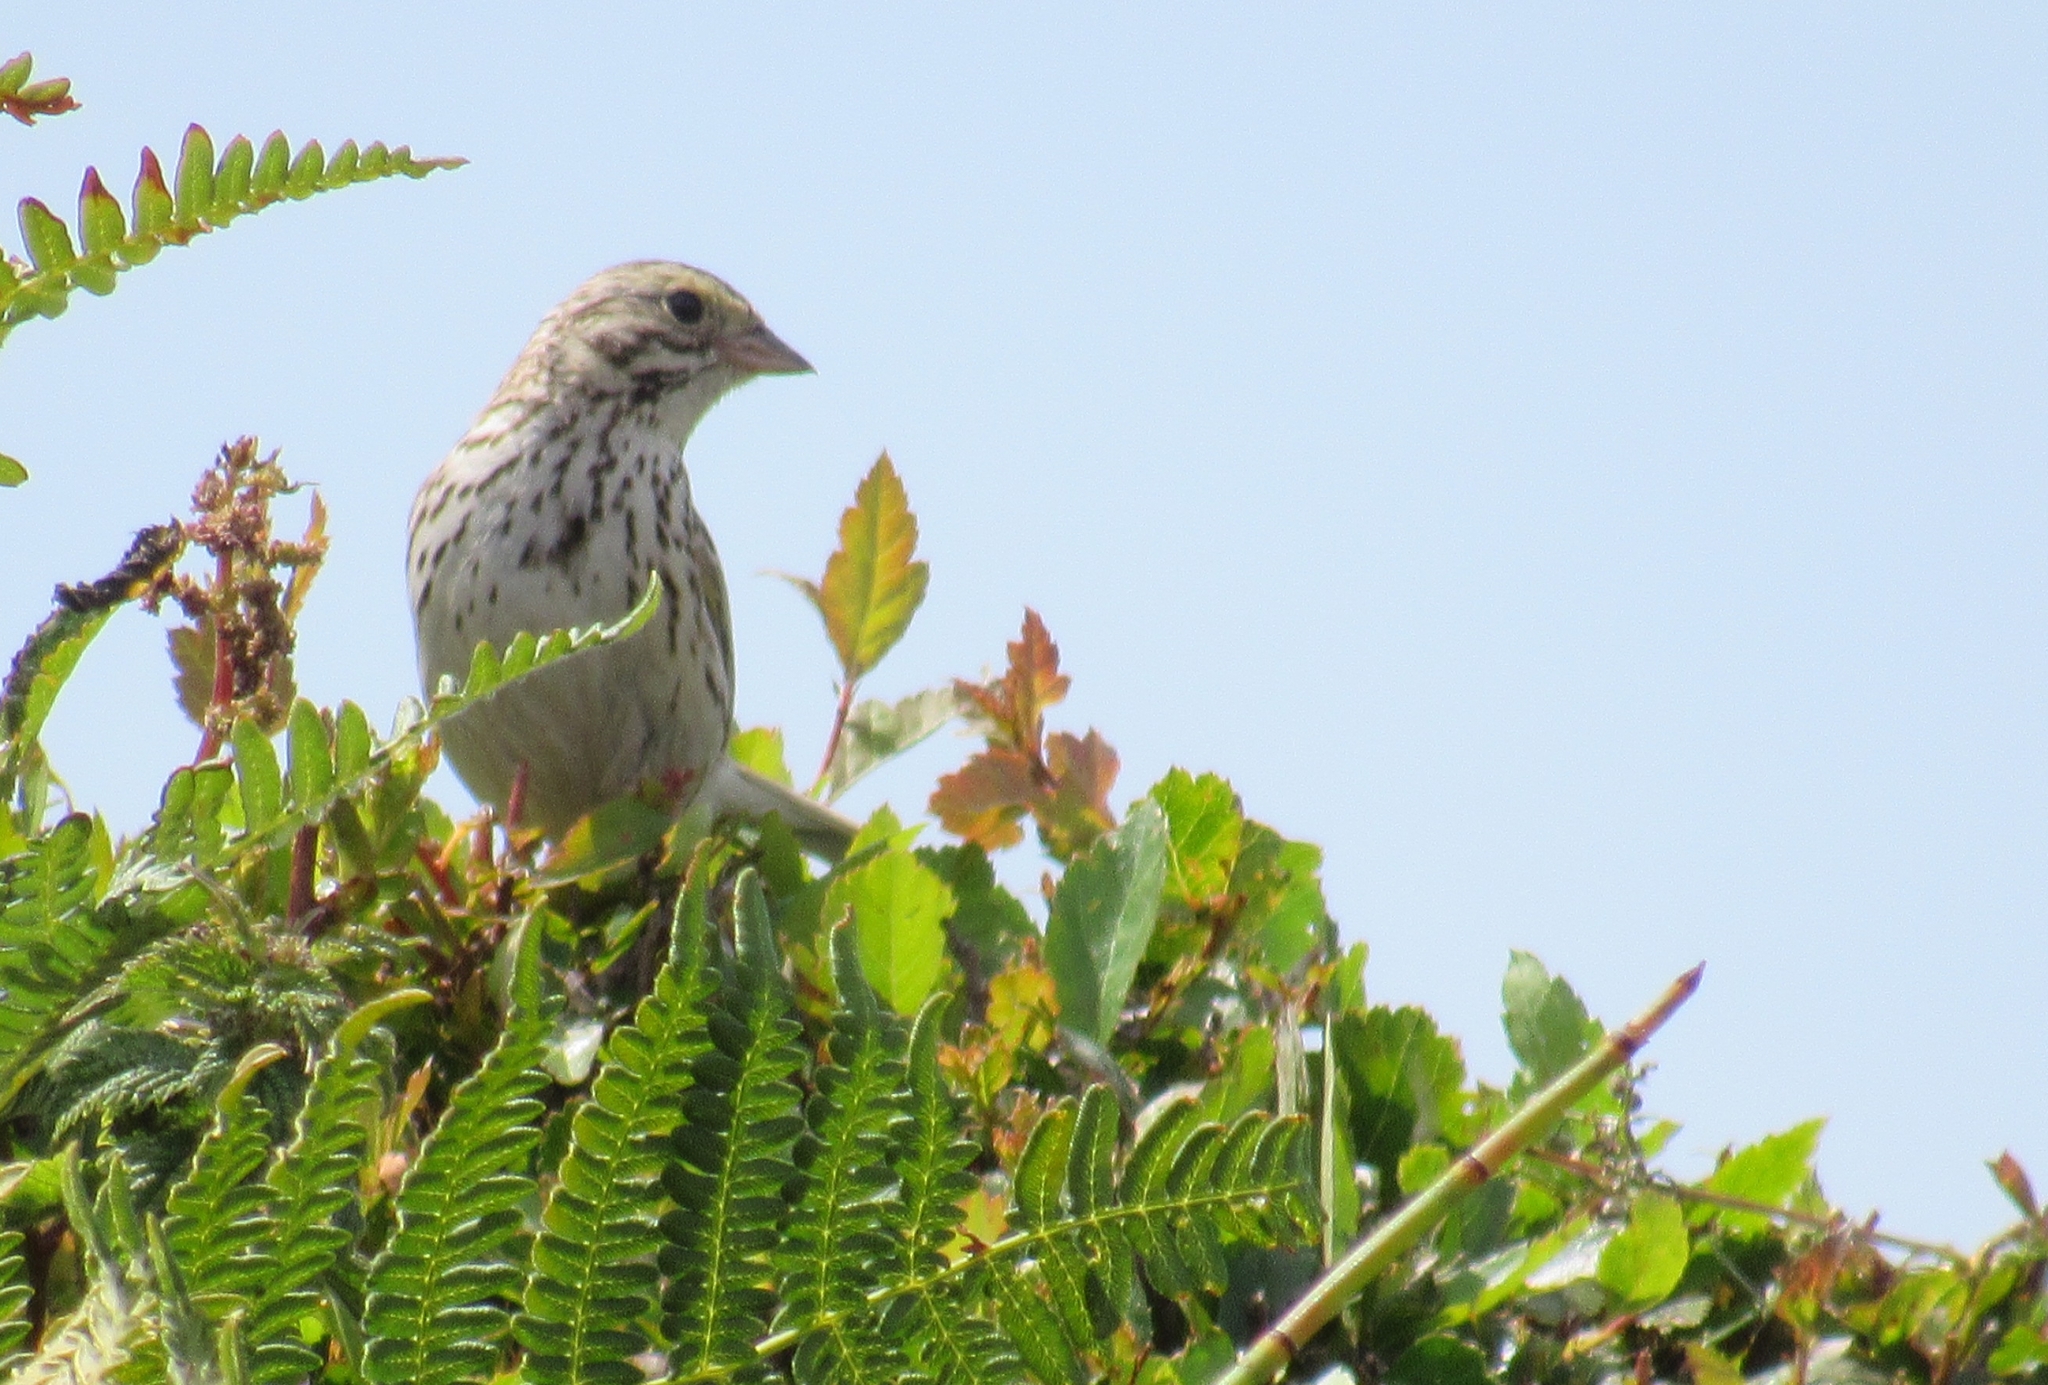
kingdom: Animalia
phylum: Chordata
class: Aves
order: Passeriformes
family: Passerellidae
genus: Passerculus
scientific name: Passerculus sandwichensis
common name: Savannah sparrow
